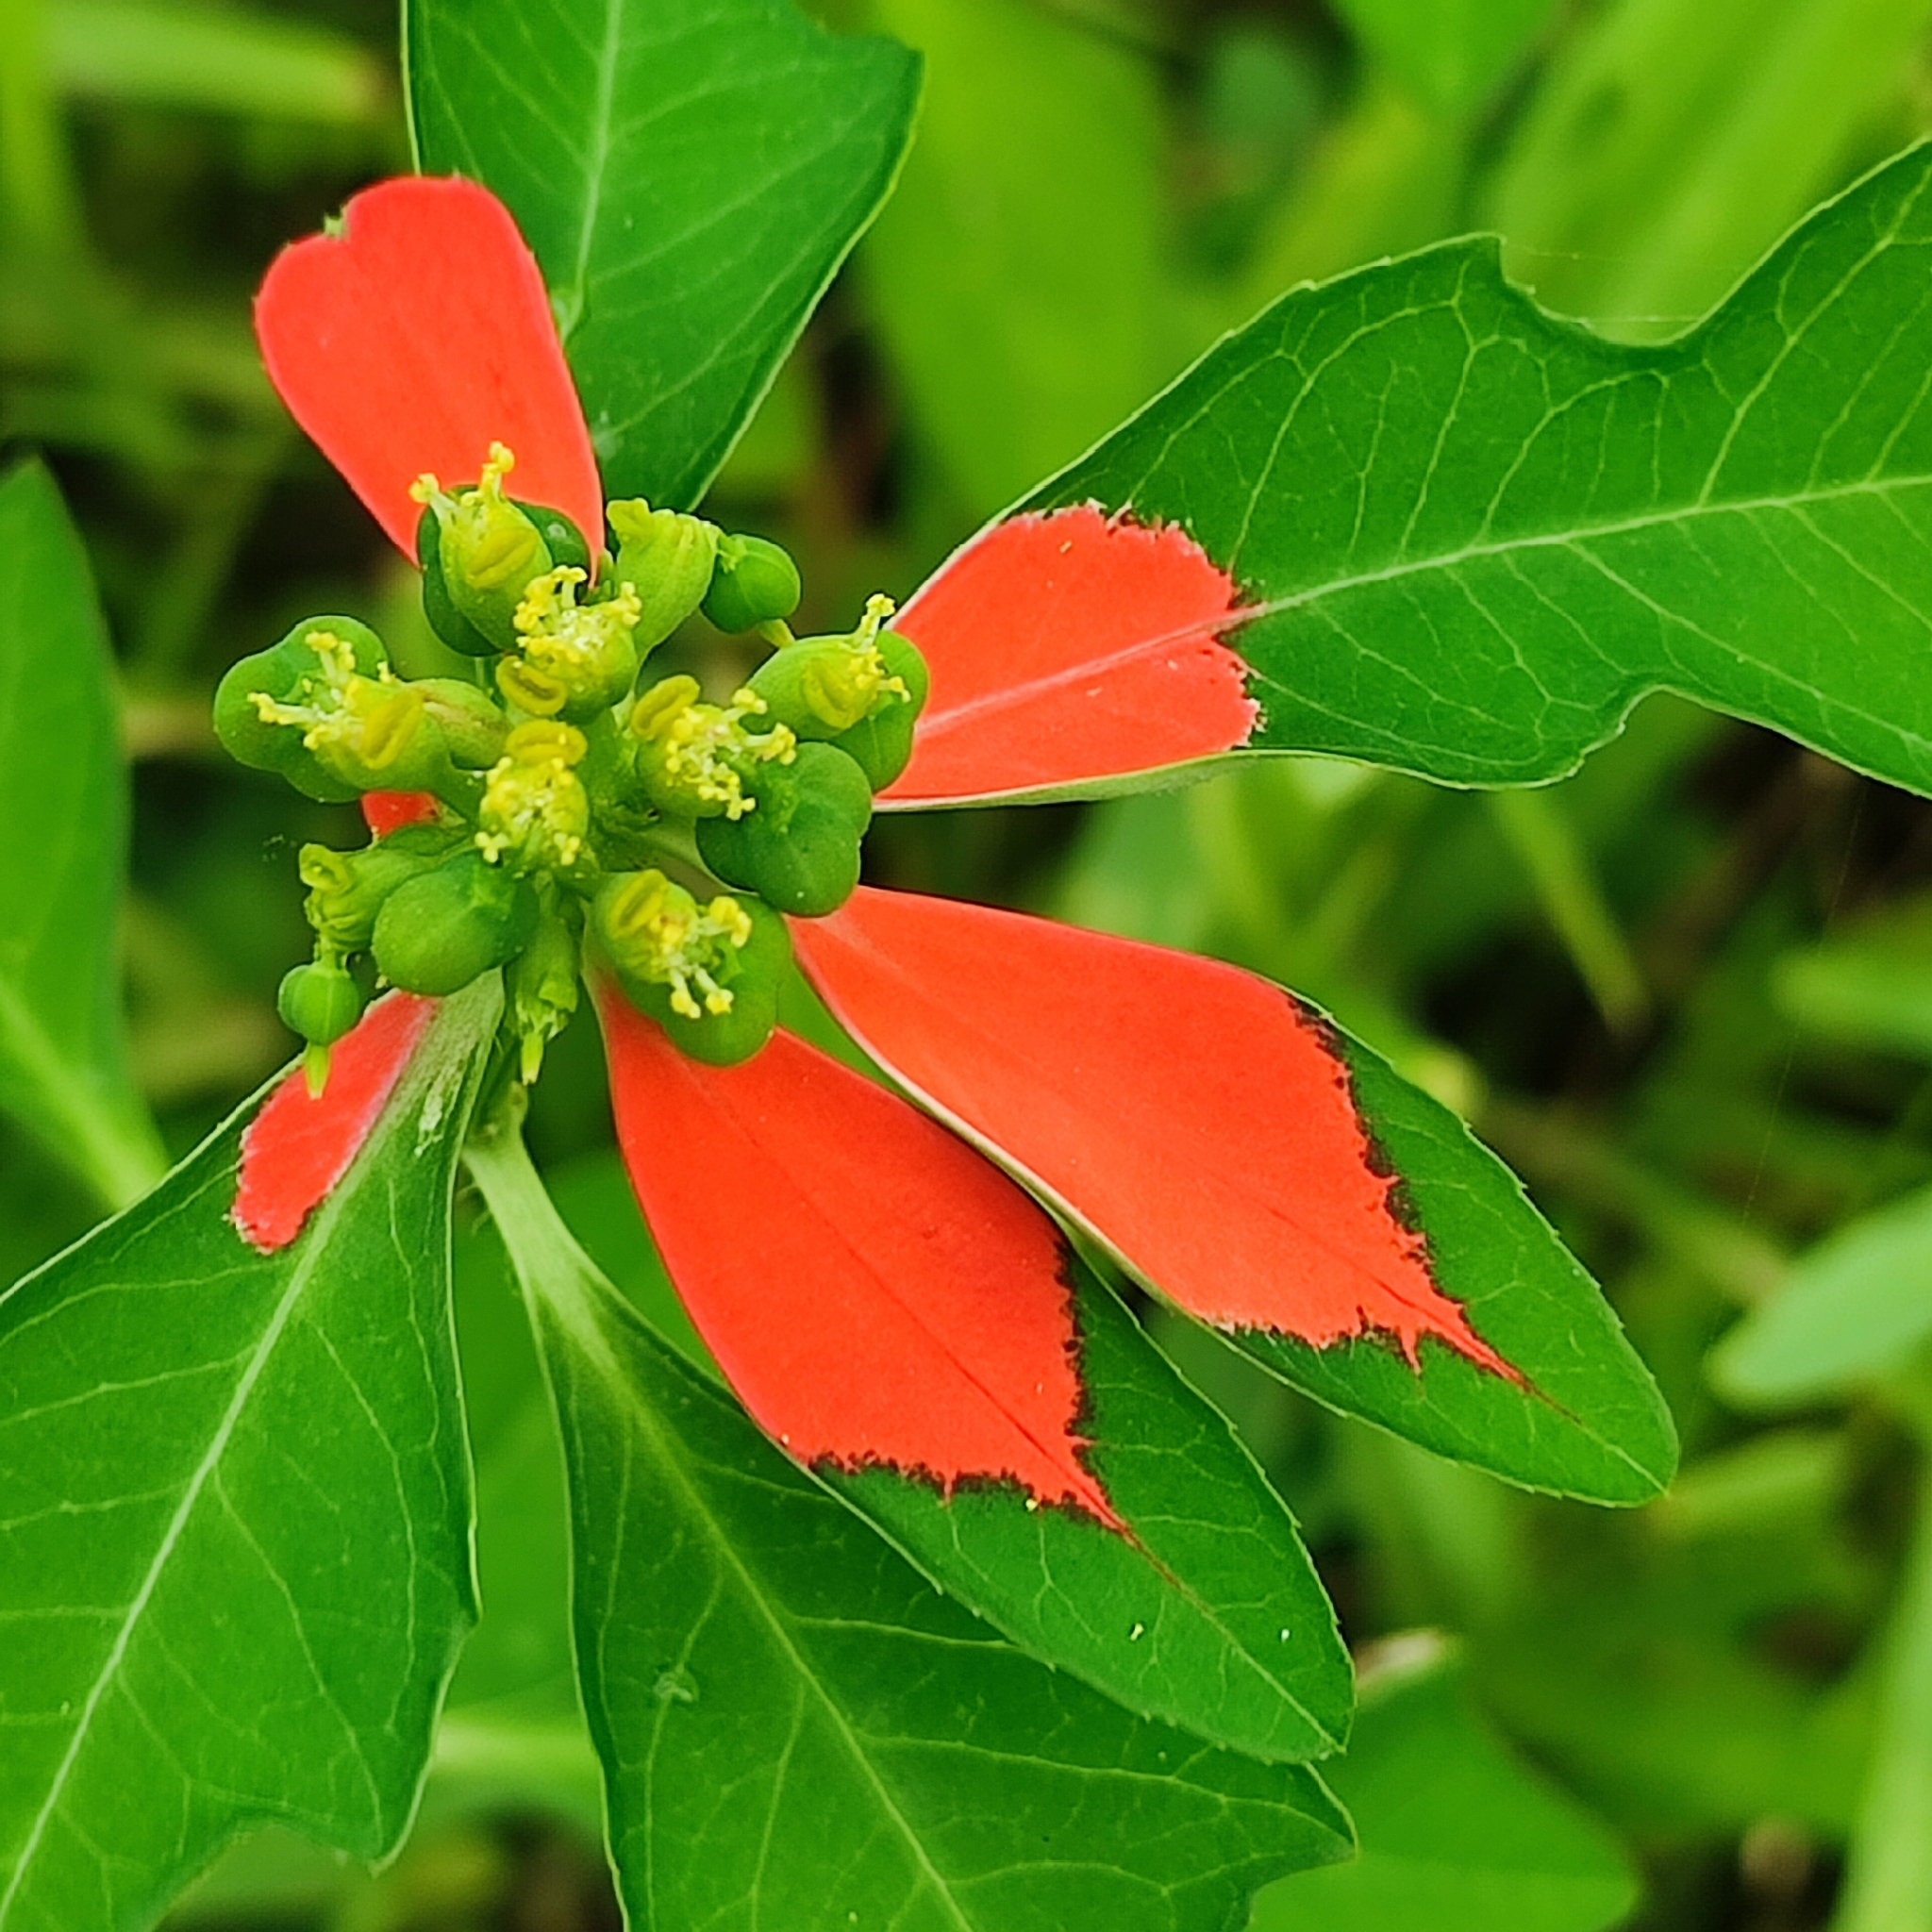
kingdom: Plantae
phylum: Tracheophyta
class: Magnoliopsida
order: Malpighiales
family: Euphorbiaceae
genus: Euphorbia
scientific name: Euphorbia heterophylla
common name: Mexican fireplant
